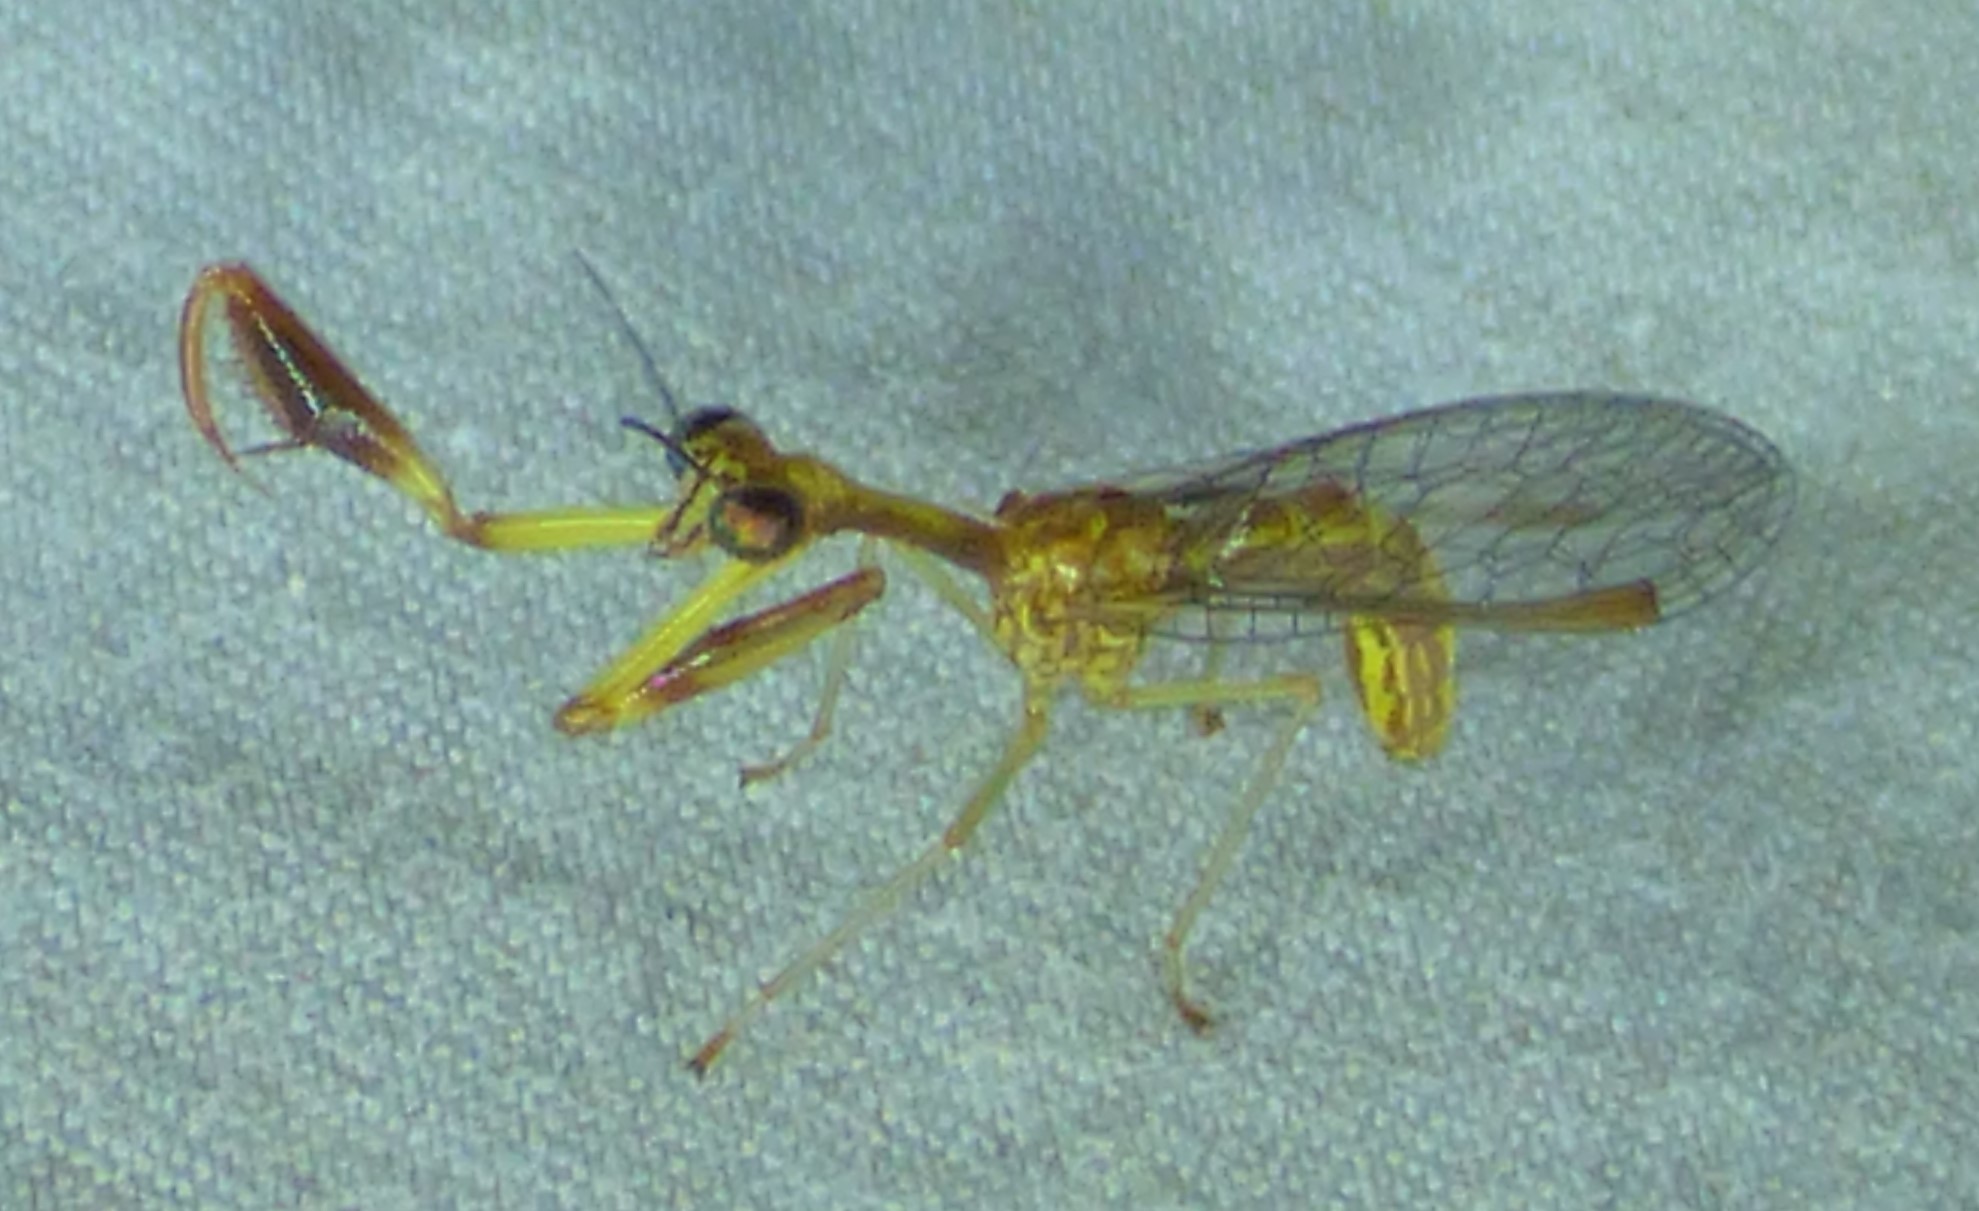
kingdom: Animalia
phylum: Arthropoda
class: Insecta
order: Neuroptera
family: Mantispidae
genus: Leptomantispa
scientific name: Leptomantispa pulchella
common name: Stevens's mantidfly
